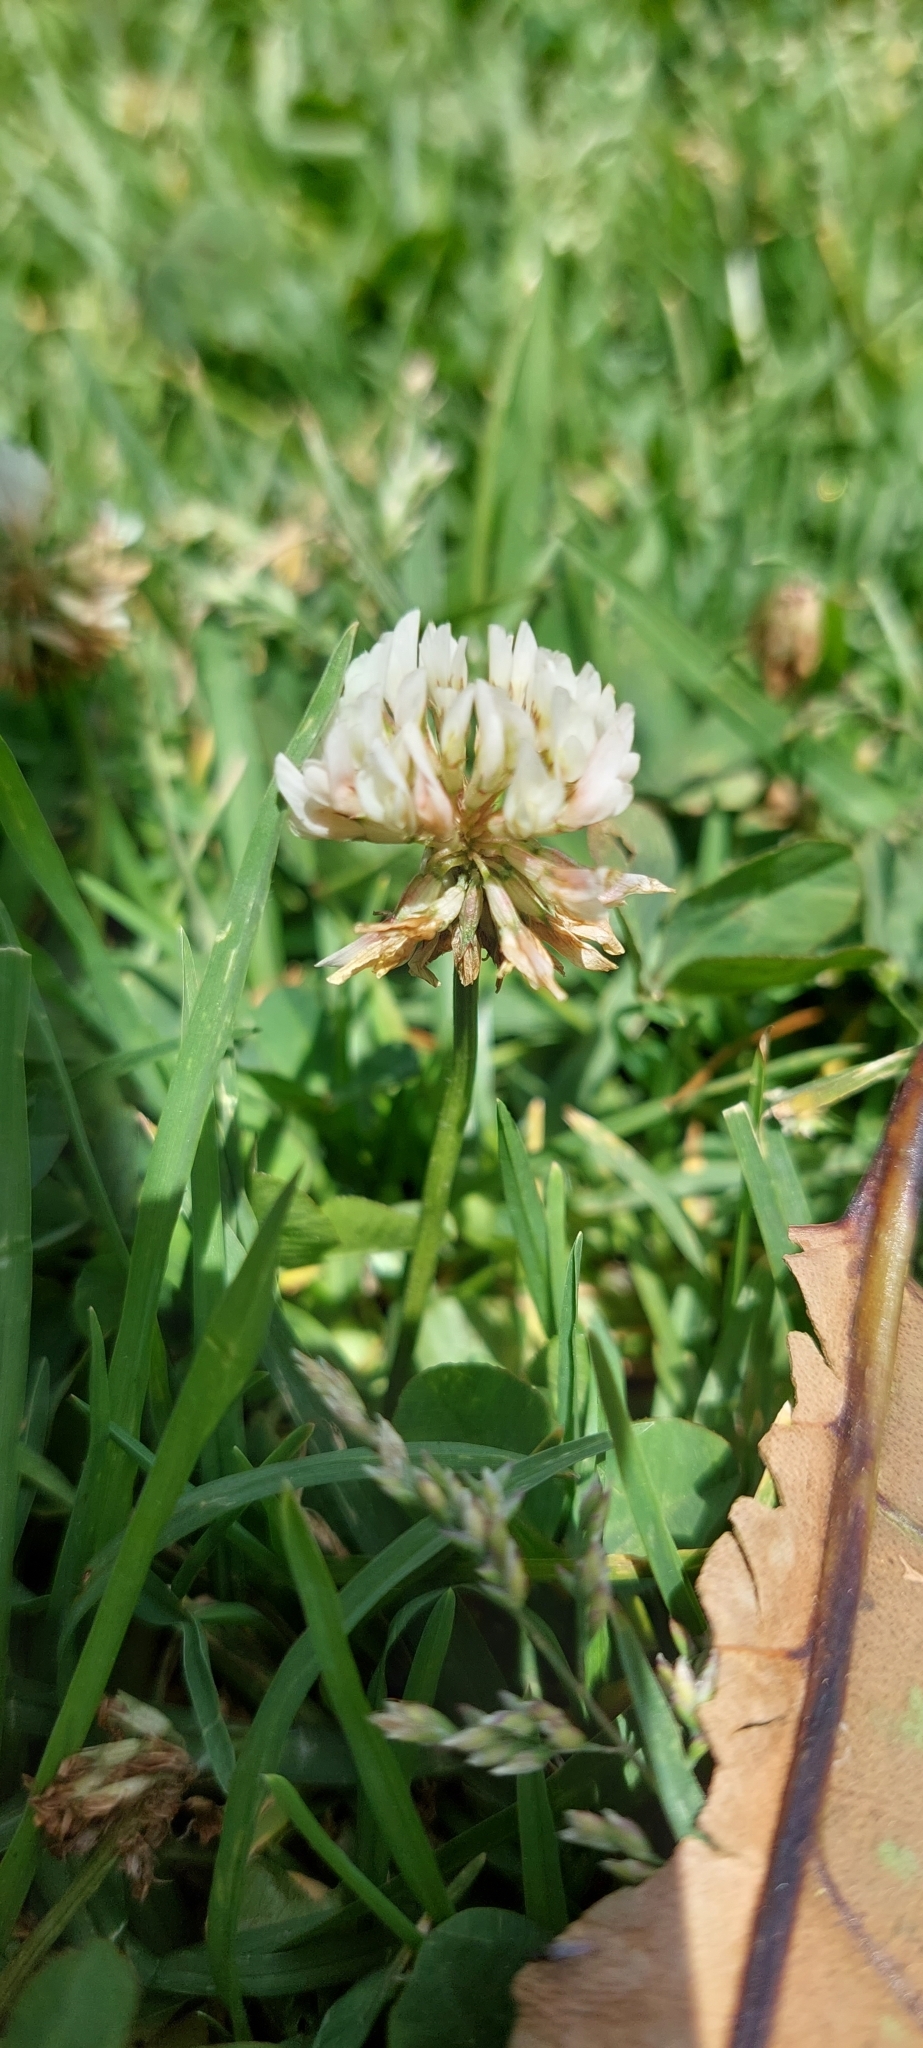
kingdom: Plantae
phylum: Tracheophyta
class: Magnoliopsida
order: Fabales
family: Fabaceae
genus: Trifolium
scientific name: Trifolium repens
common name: White clover
